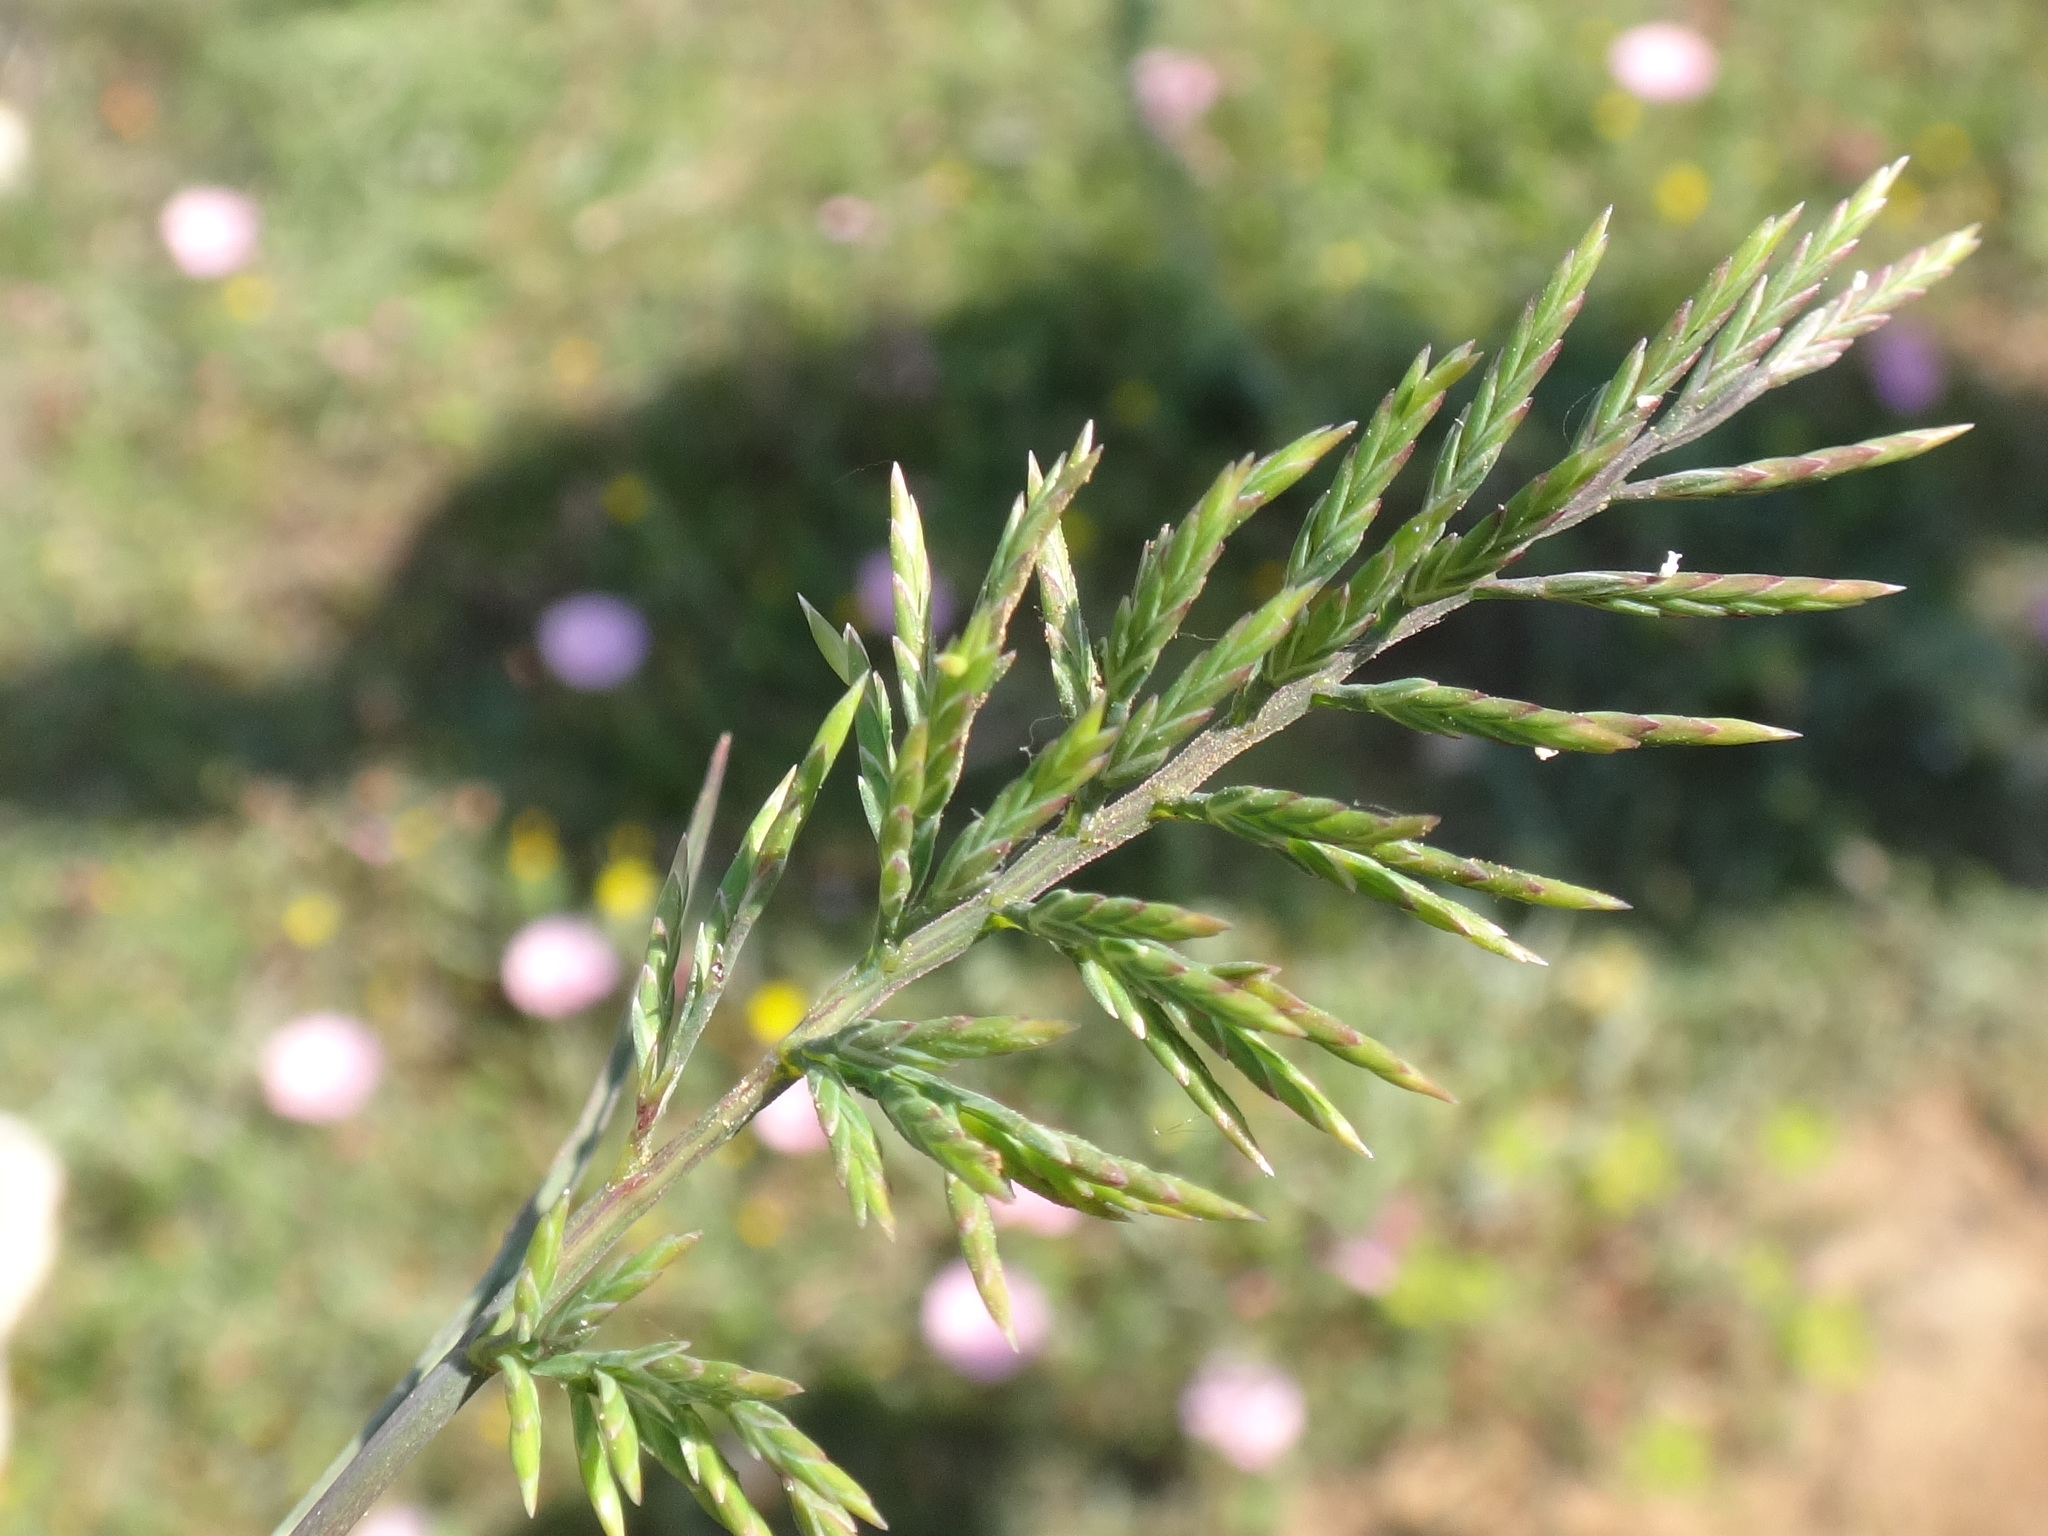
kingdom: Plantae
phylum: Tracheophyta
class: Liliopsida
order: Poales
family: Poaceae
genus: Catapodium
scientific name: Catapodium rigidum
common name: Fern-grass
